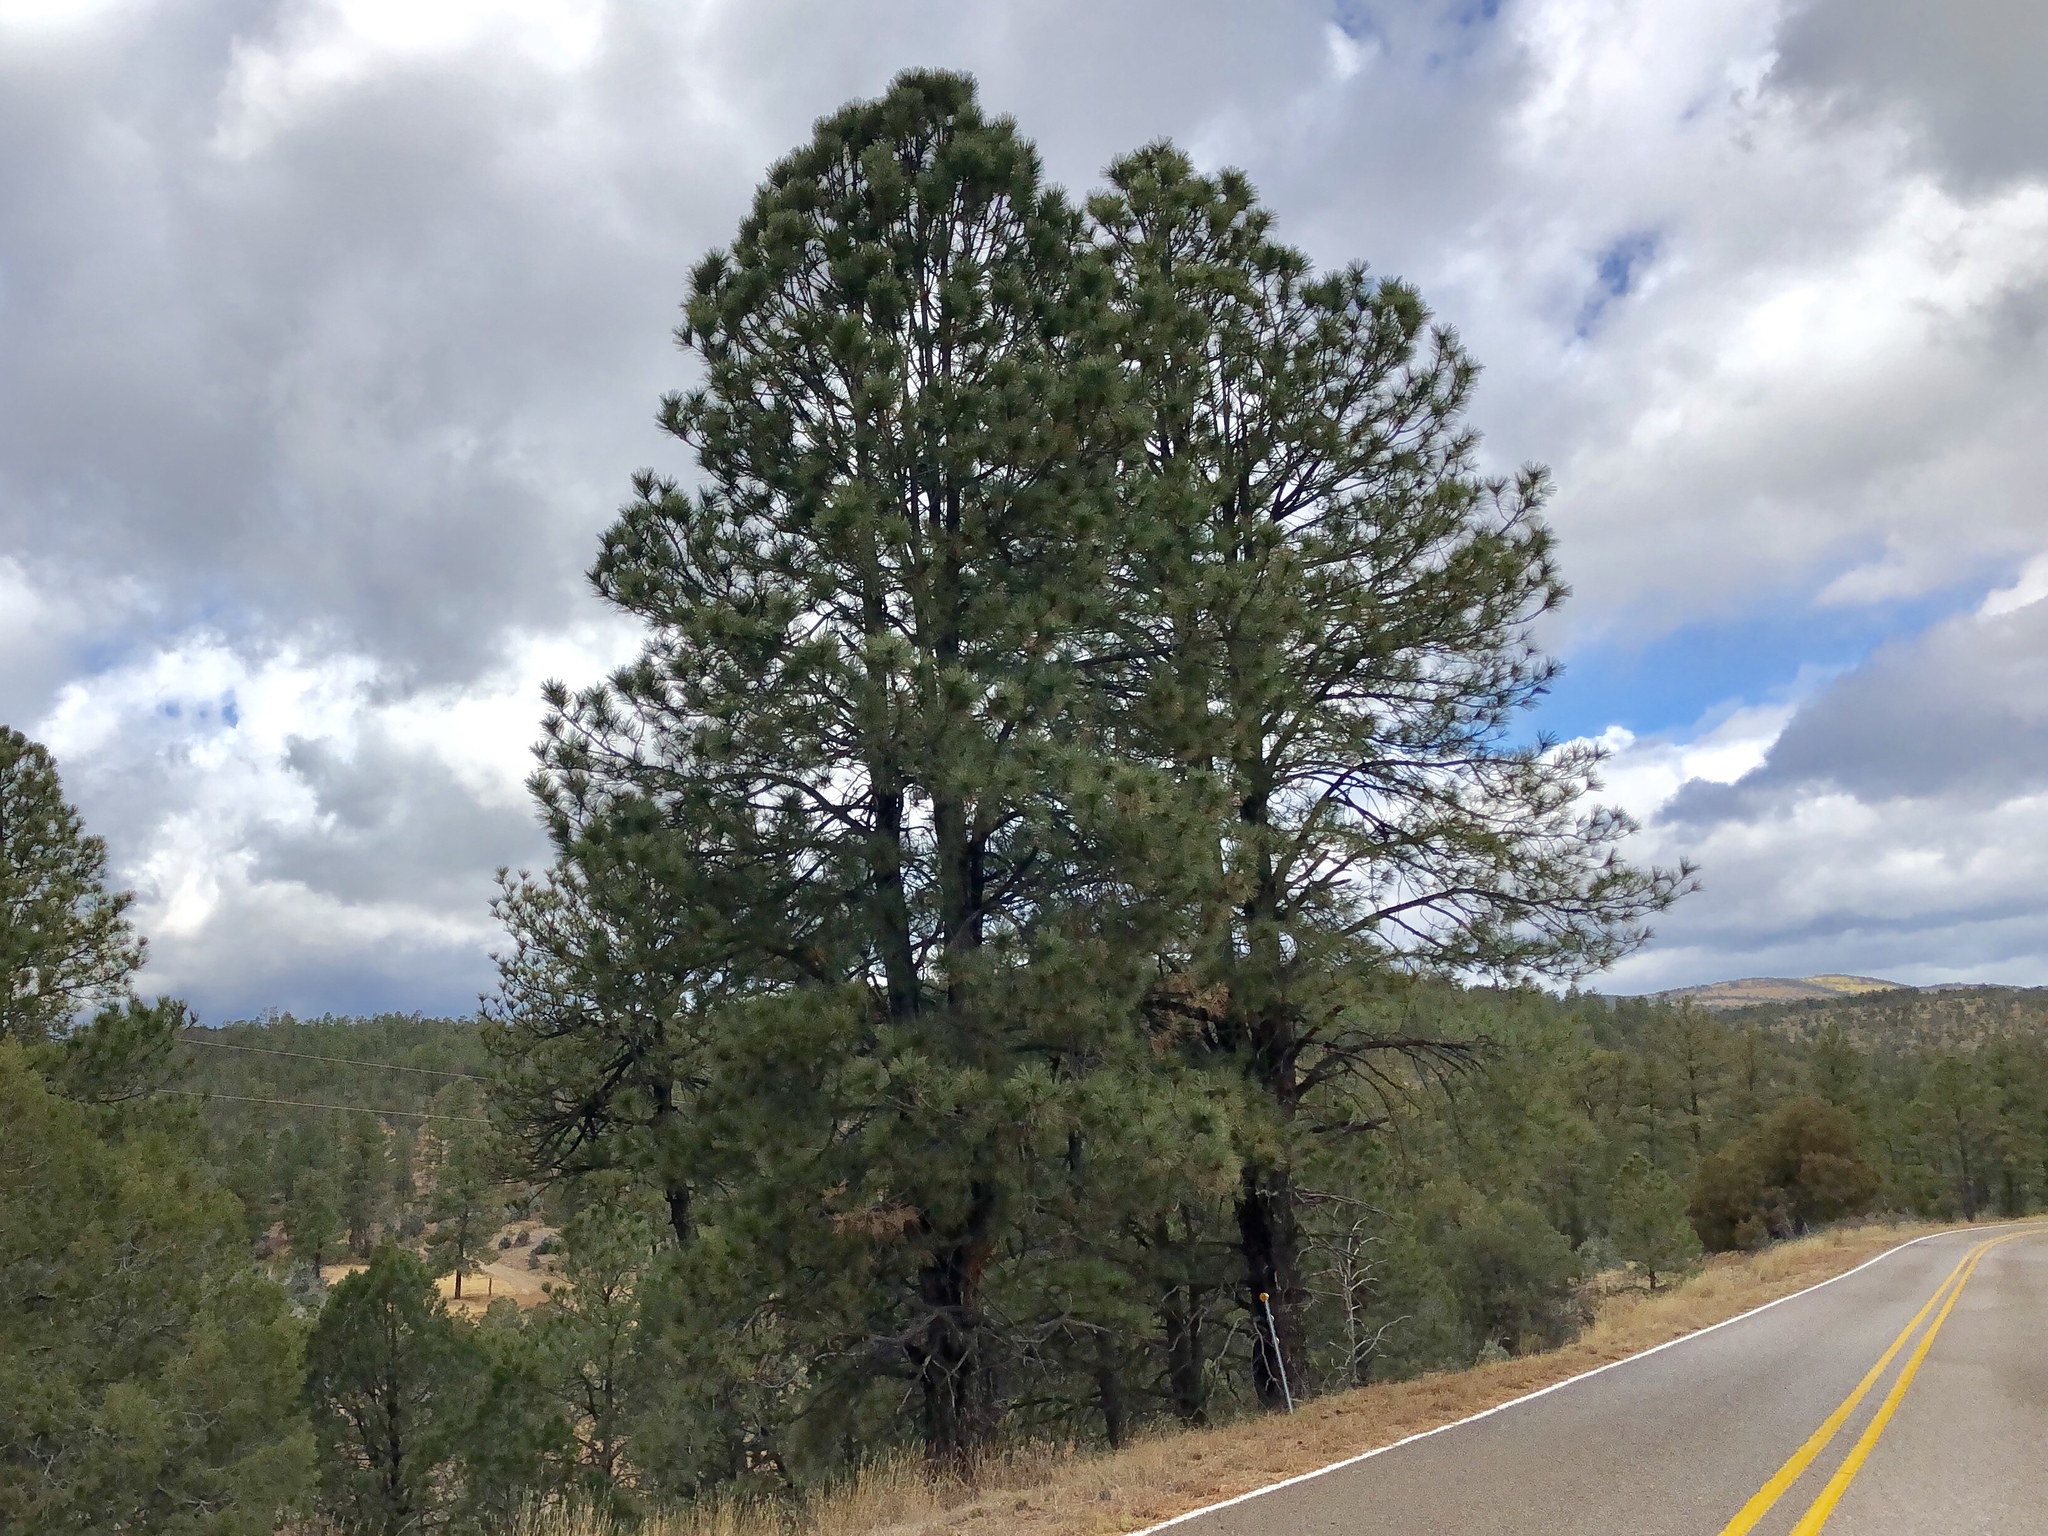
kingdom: Plantae
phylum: Tracheophyta
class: Pinopsida
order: Pinales
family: Pinaceae
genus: Pinus
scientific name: Pinus ponderosa
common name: Western yellow-pine
